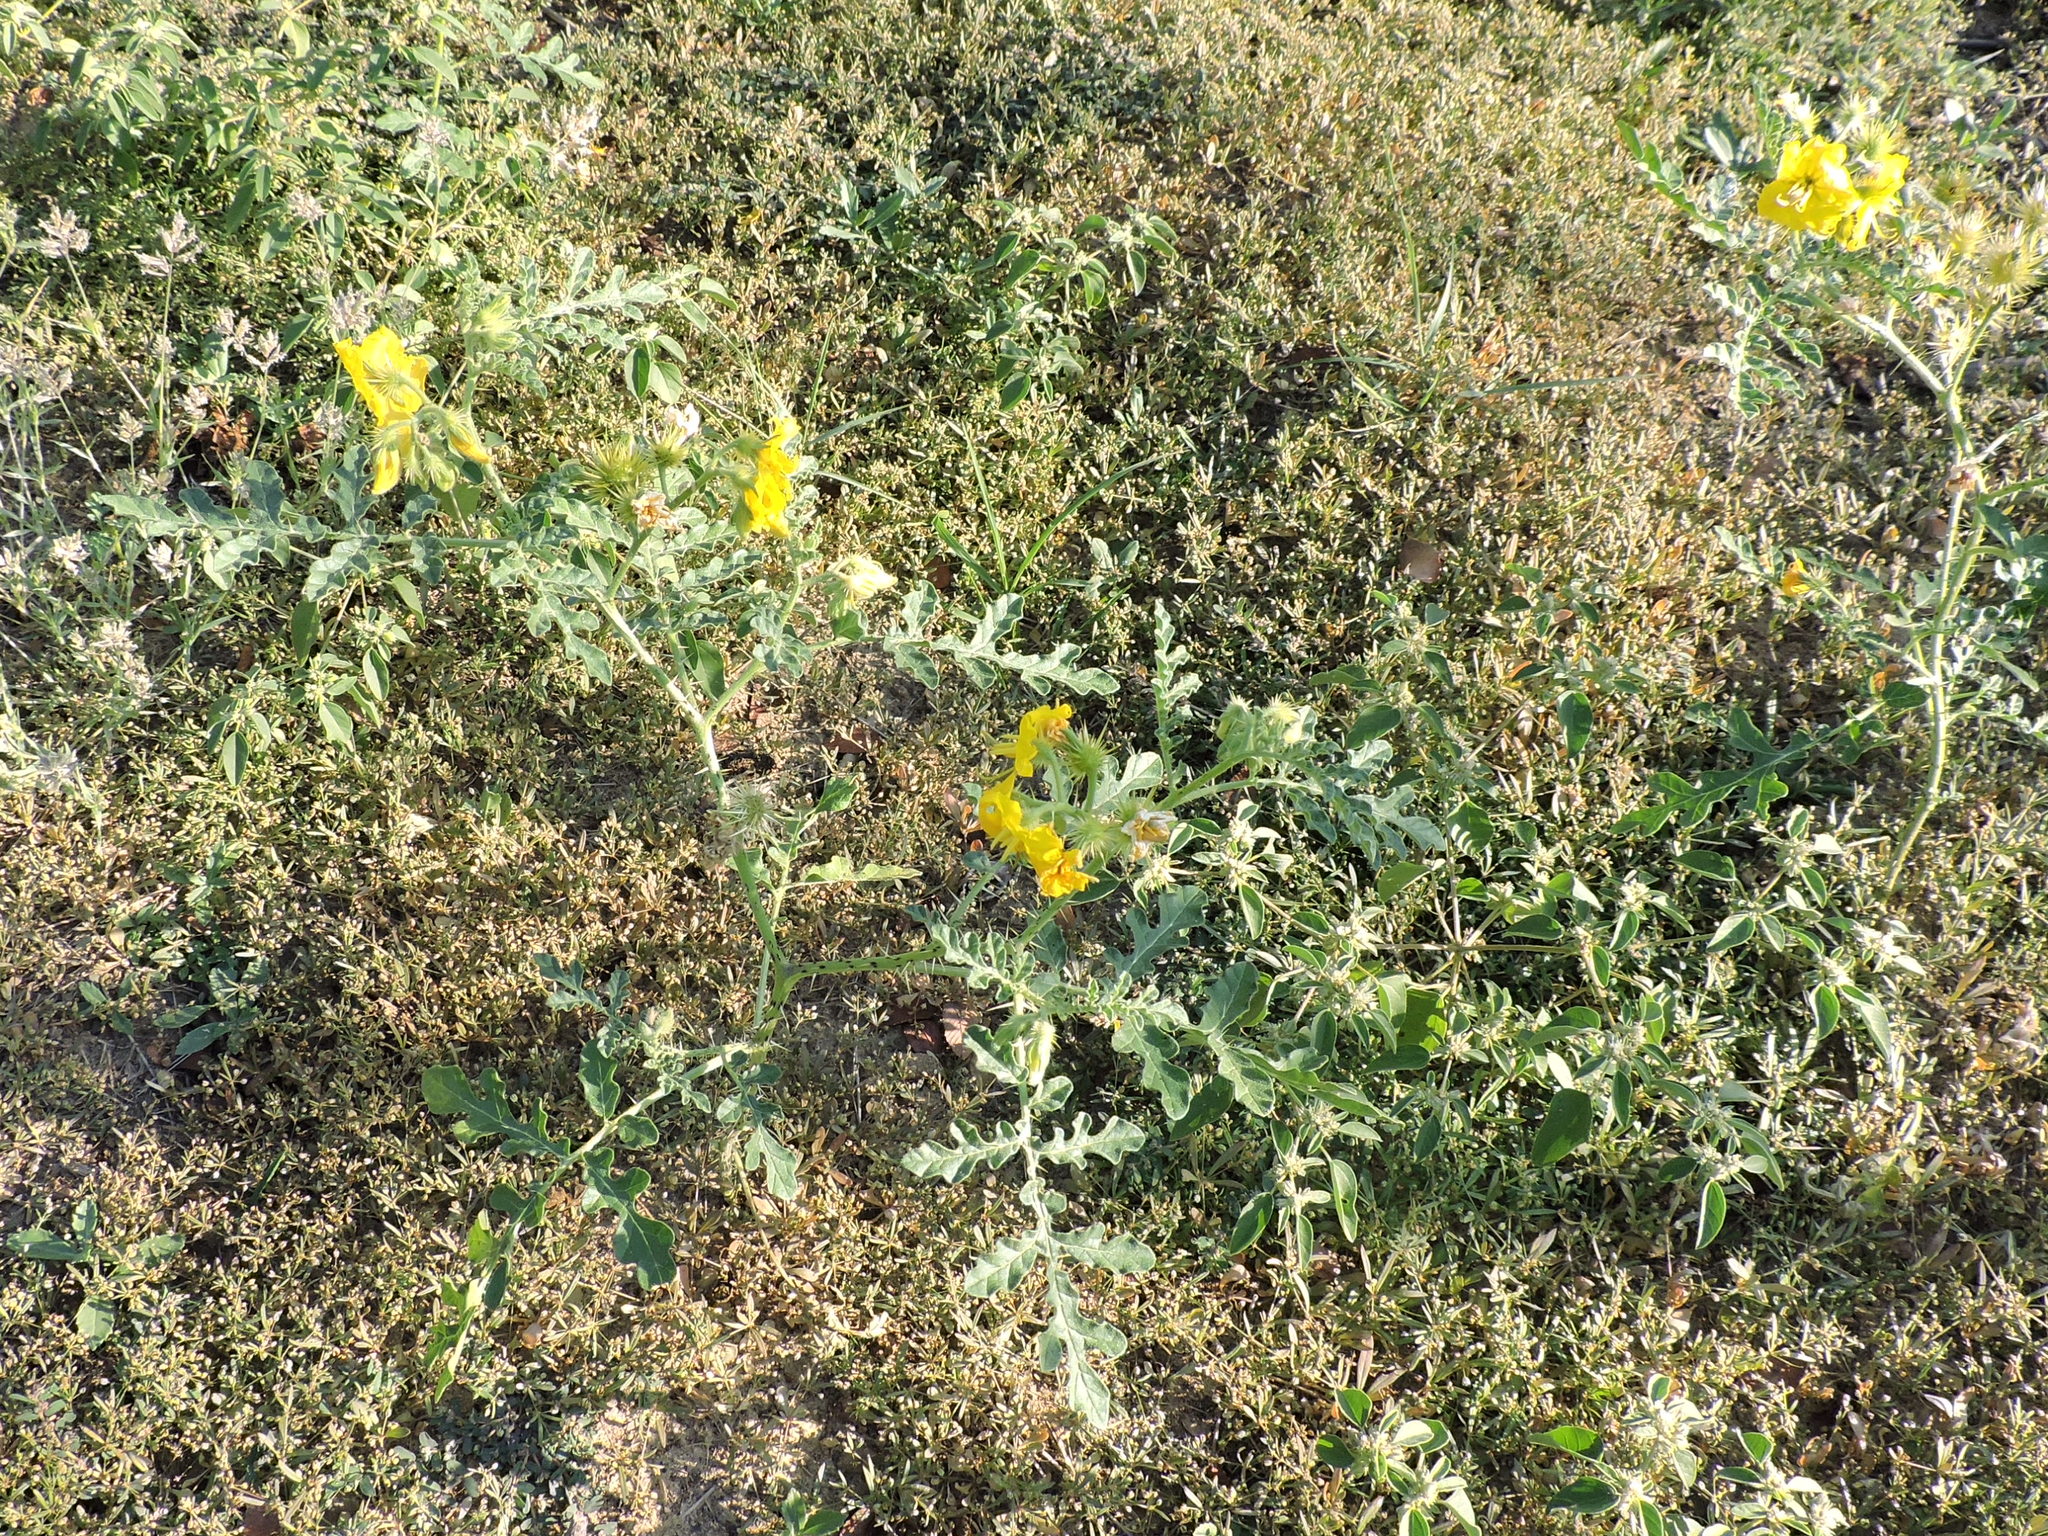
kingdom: Plantae
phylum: Tracheophyta
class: Magnoliopsida
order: Solanales
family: Solanaceae
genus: Solanum
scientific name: Solanum angustifolium
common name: Buffalobur nightshade
